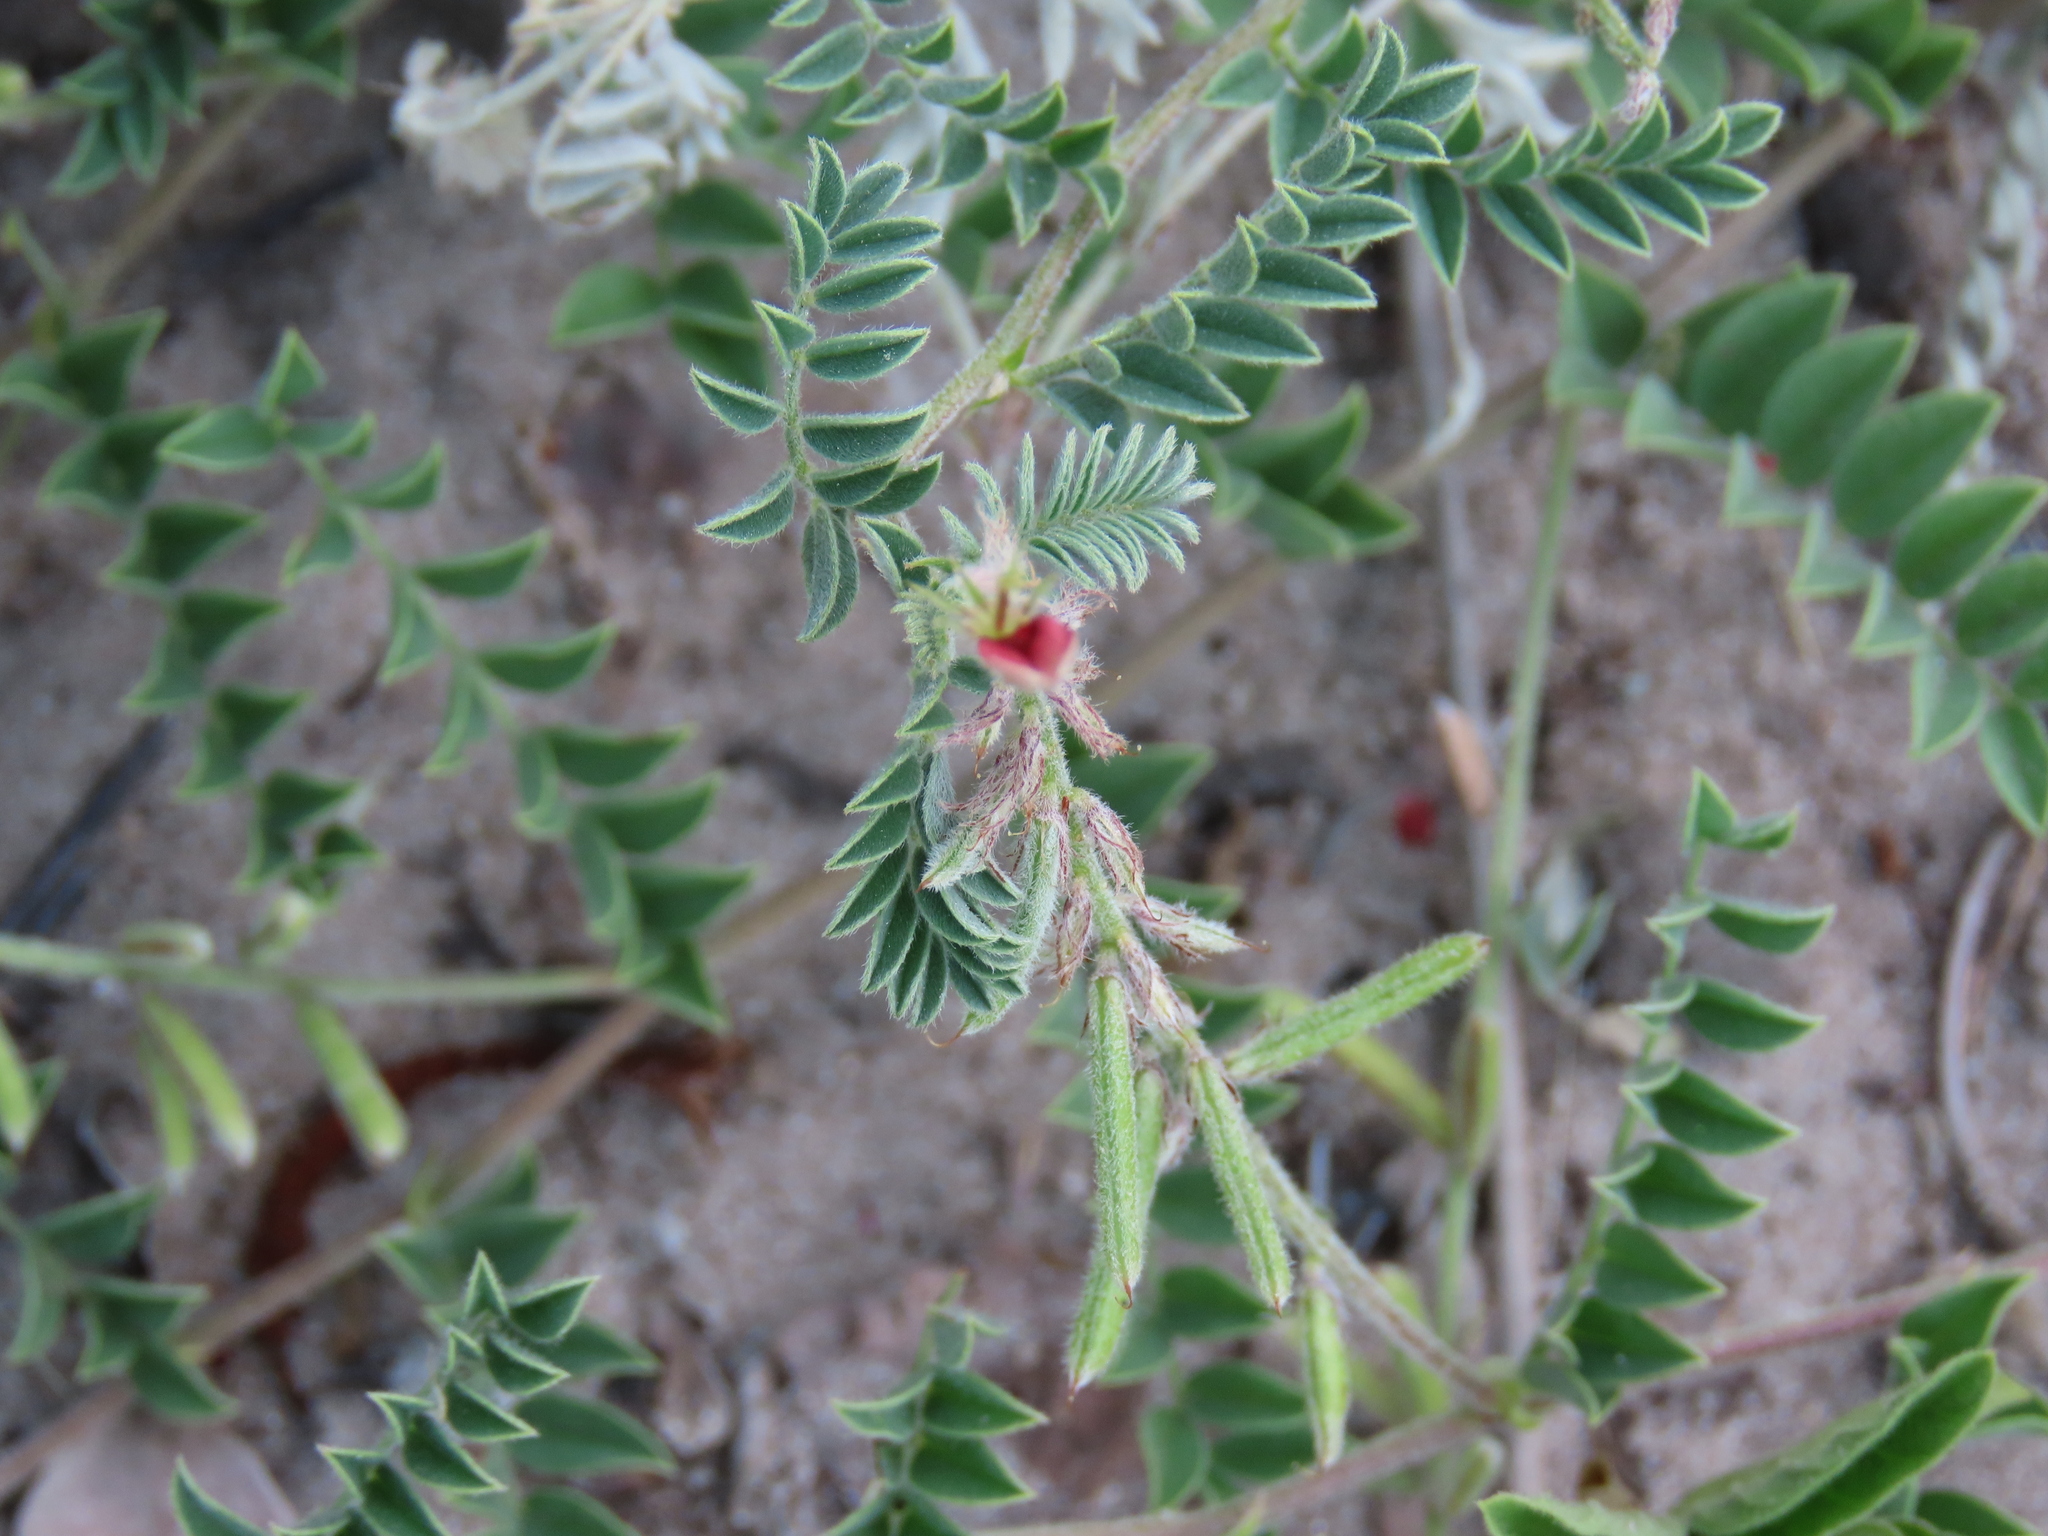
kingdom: Plantae
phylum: Tracheophyta
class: Magnoliopsida
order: Fabales
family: Fabaceae
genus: Indigofera
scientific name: Indigofera daleoides
